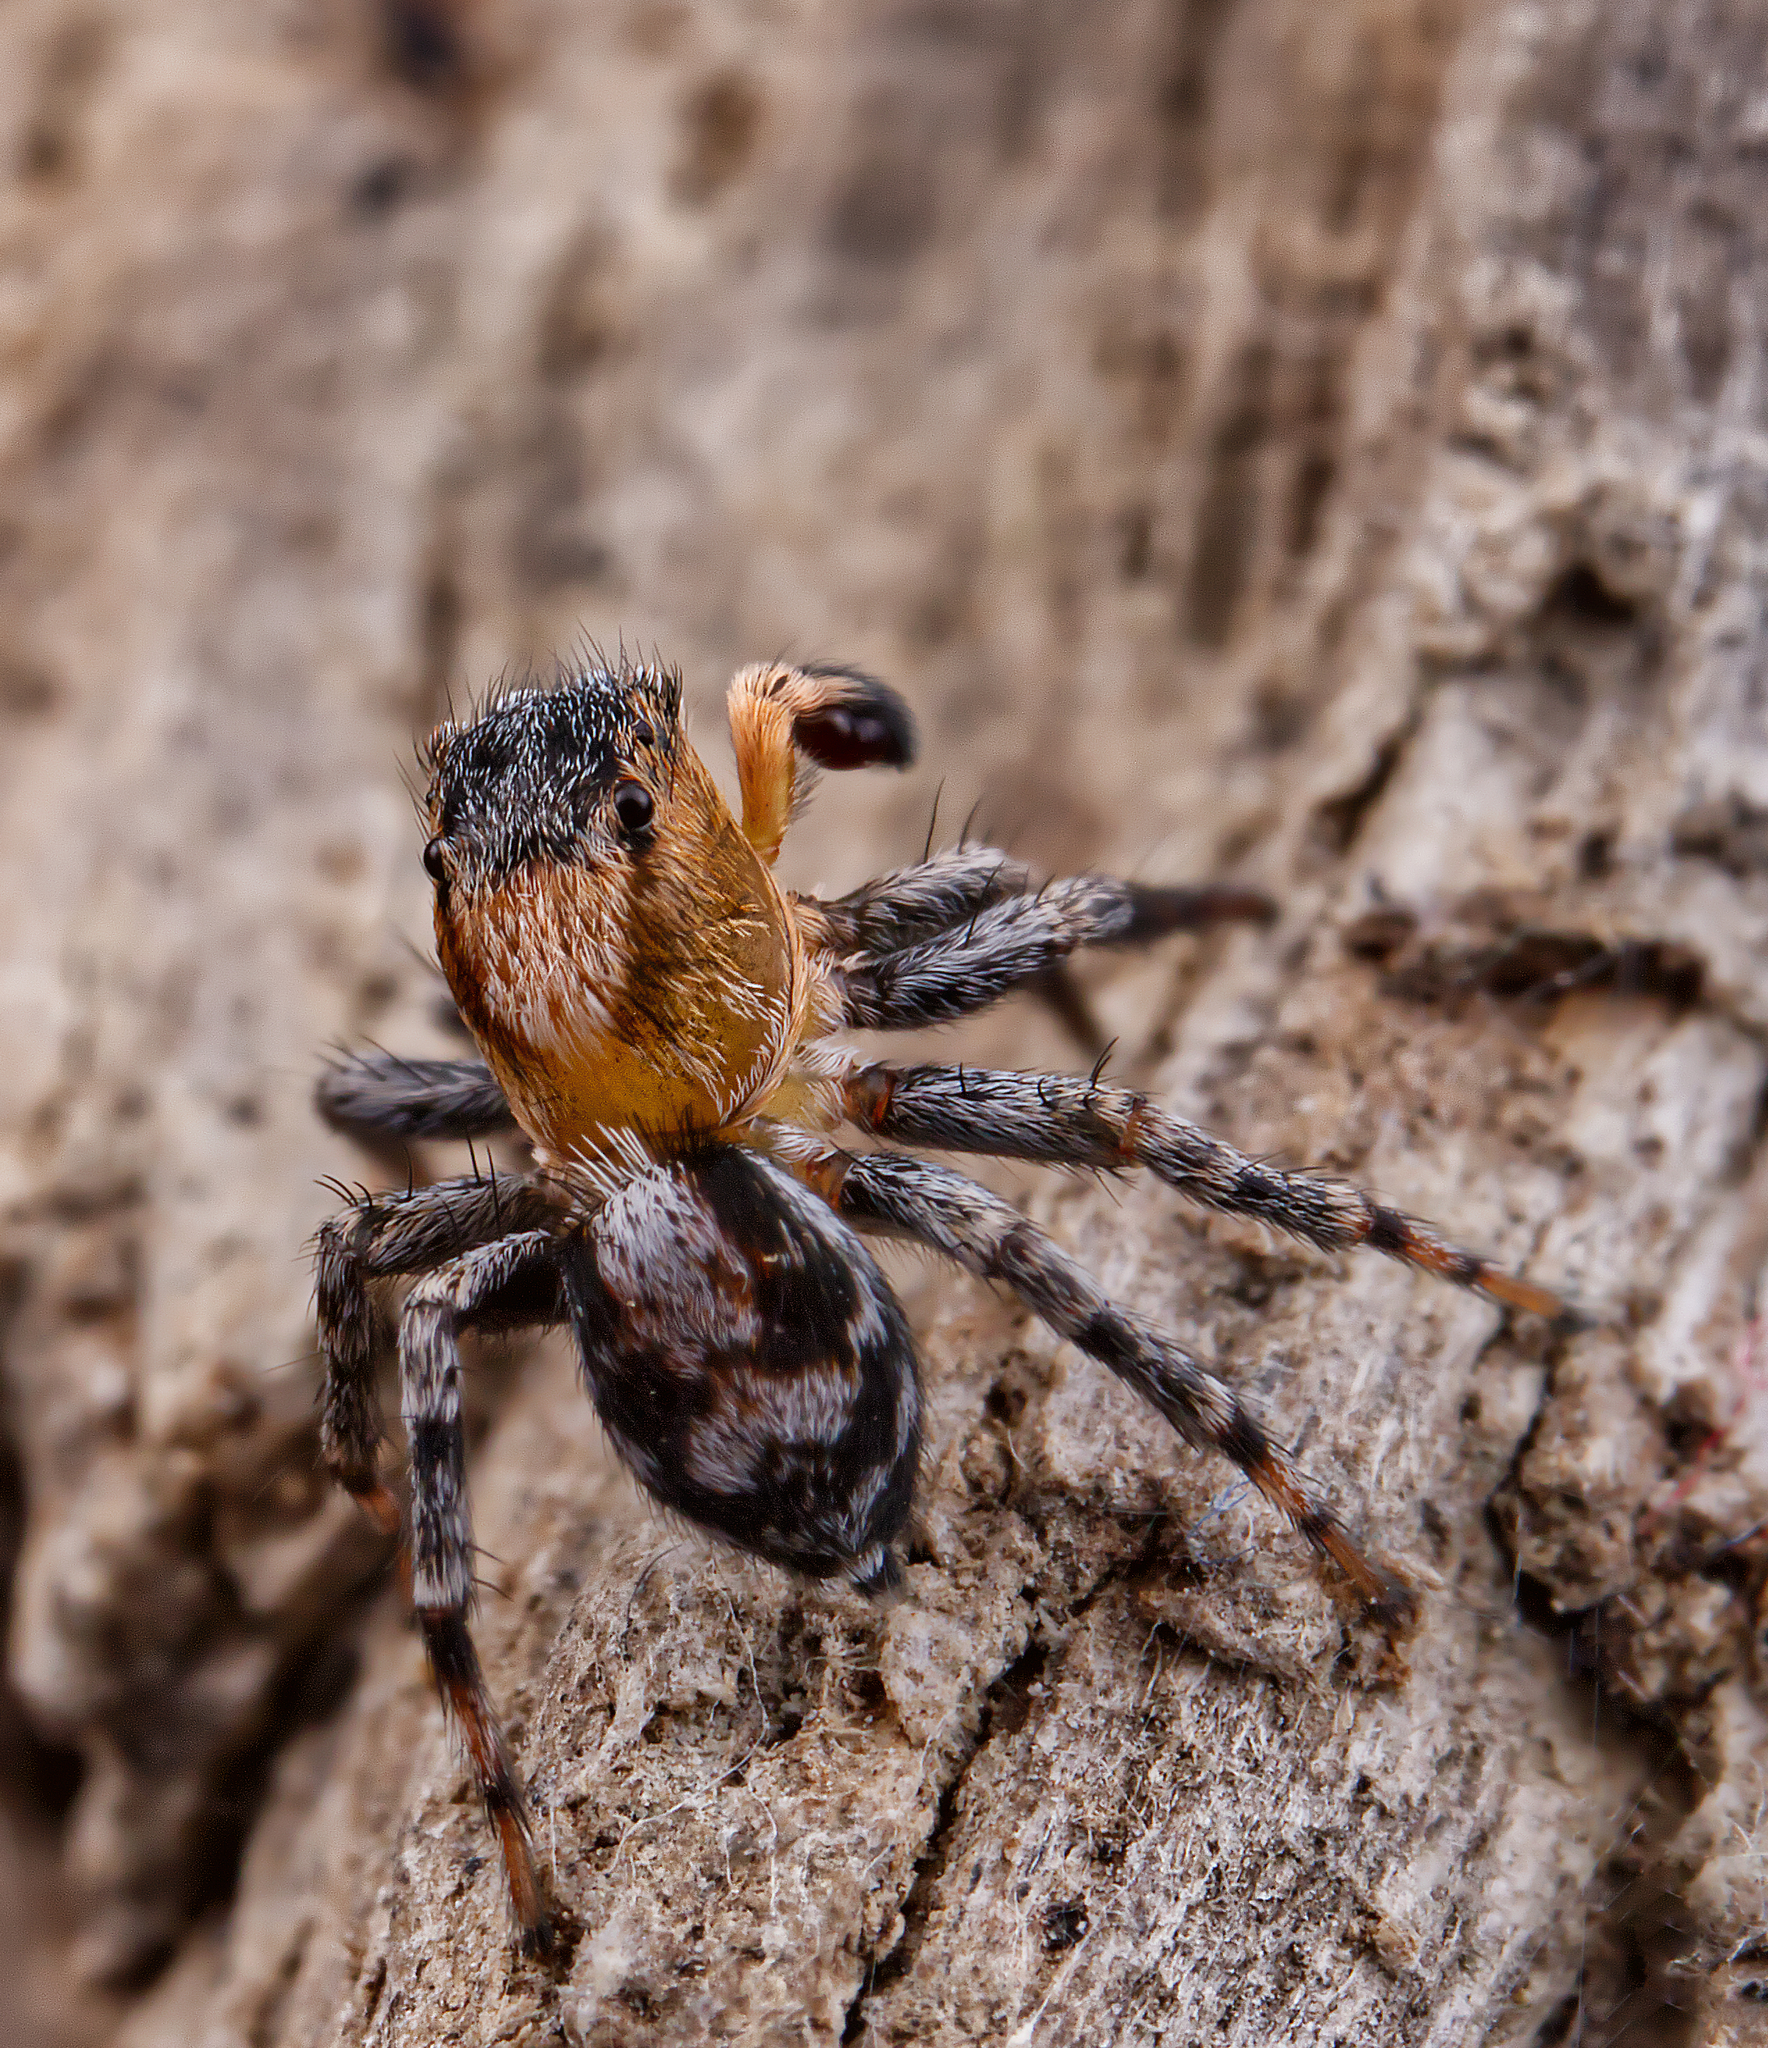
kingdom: Animalia
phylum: Arthropoda
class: Arachnida
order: Araneae
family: Salticidae
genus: Naphrys
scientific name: Naphrys pulex
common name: Flea jumping spider
